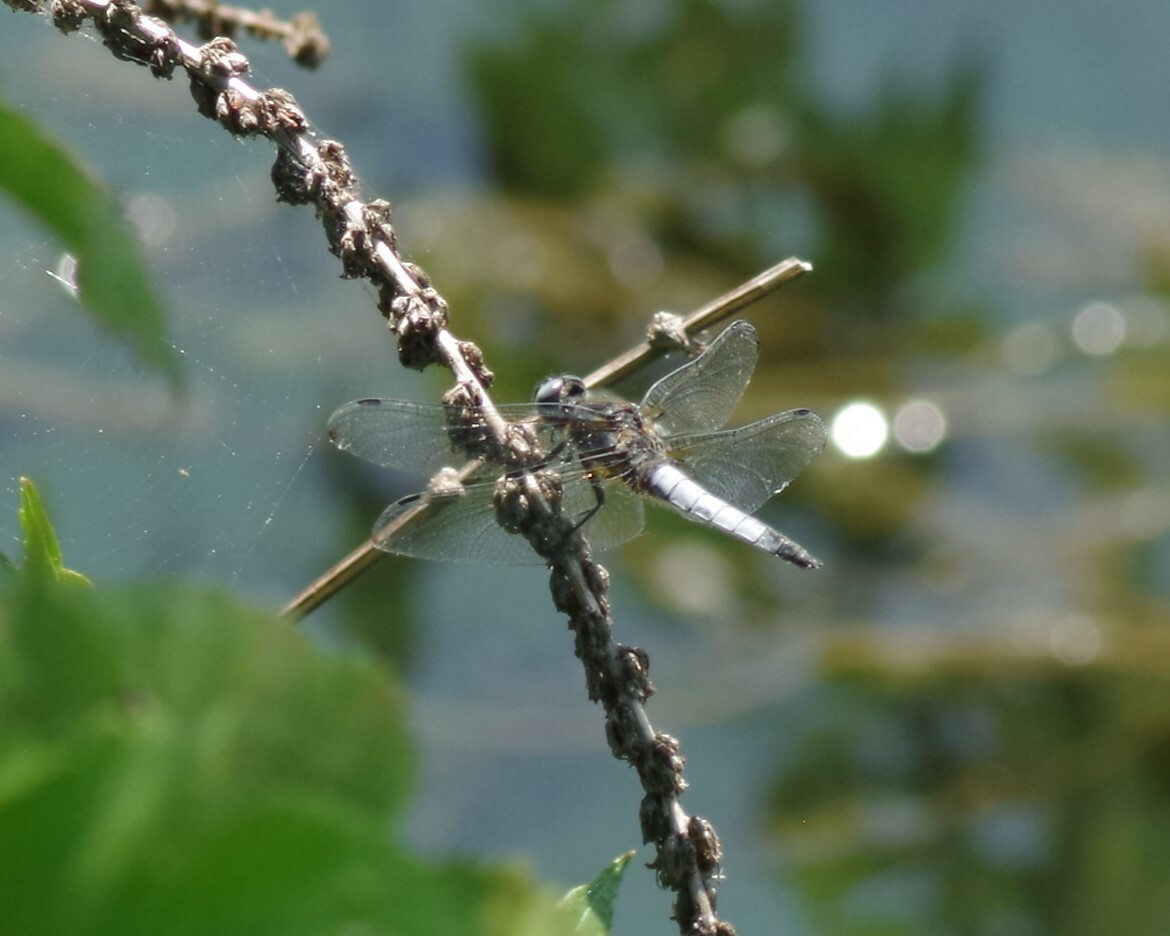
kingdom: Animalia
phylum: Arthropoda
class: Insecta
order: Odonata
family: Libellulidae
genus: Libellula
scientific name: Libellula fulva
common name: Blue chaser
